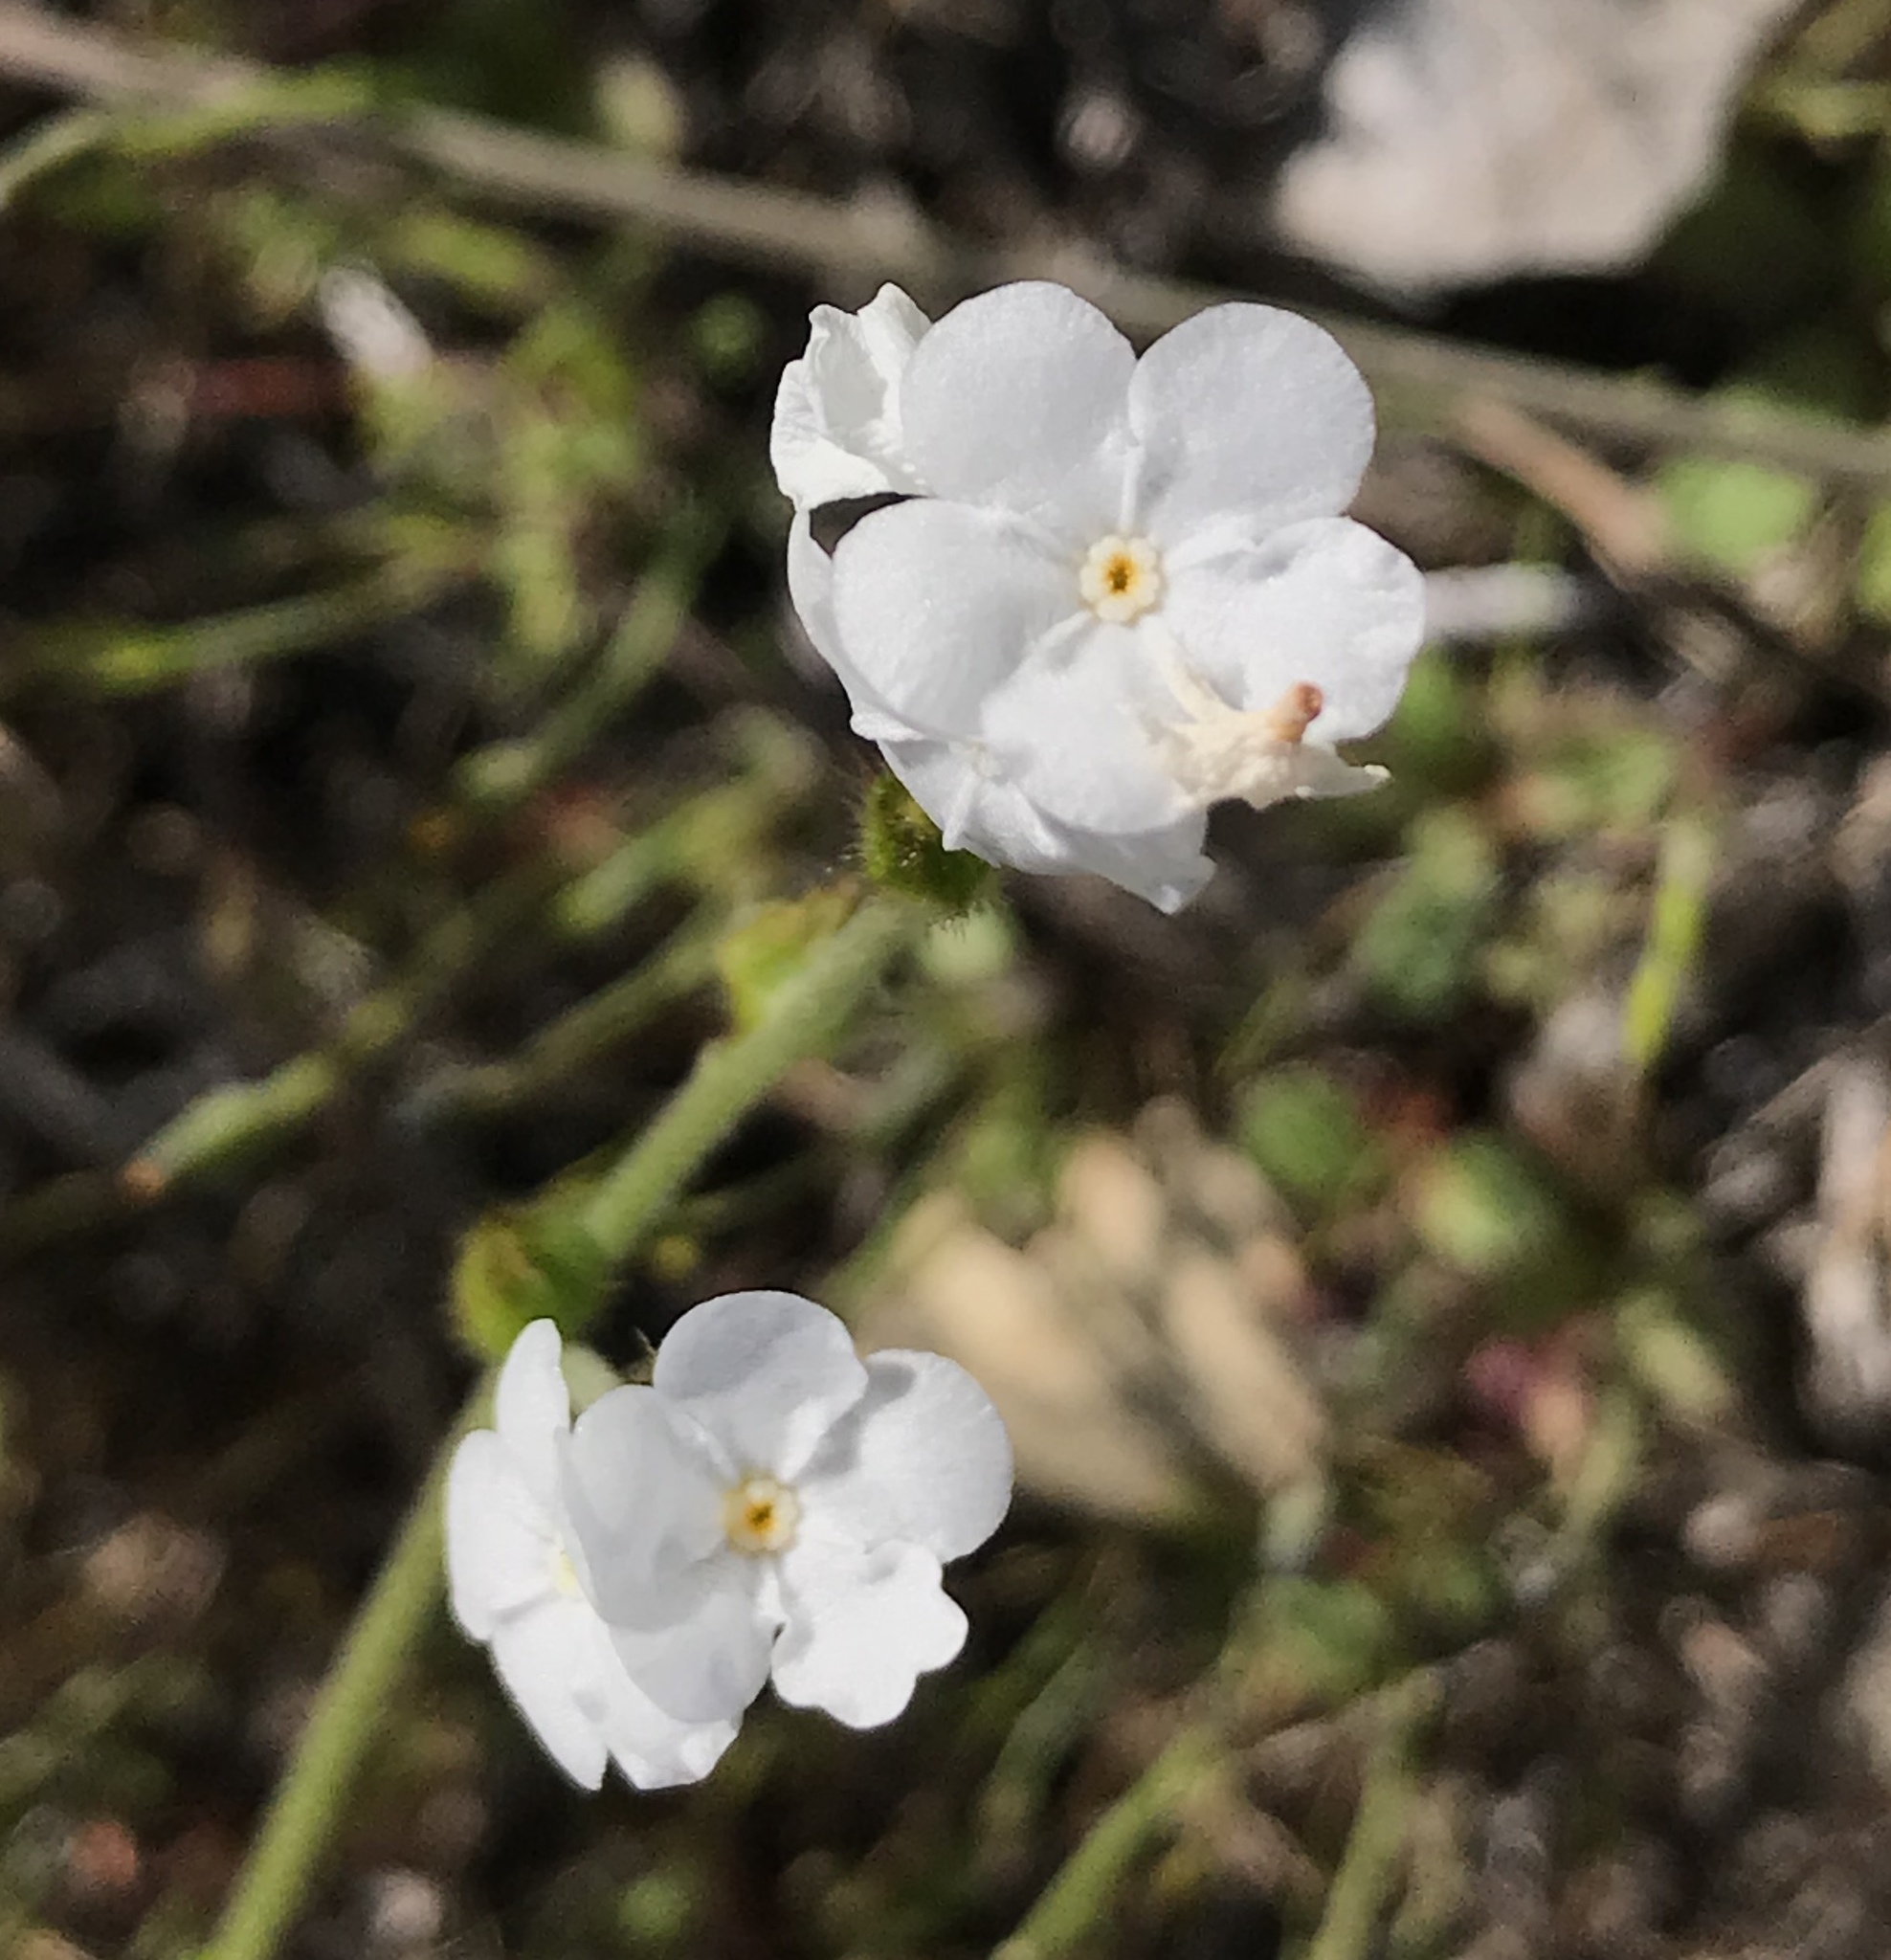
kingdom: Plantae
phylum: Tracheophyta
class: Magnoliopsida
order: Boraginales
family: Boraginaceae
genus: Plagiobothrys
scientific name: Plagiobothrys nothofulvus
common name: Popcorn-flower
